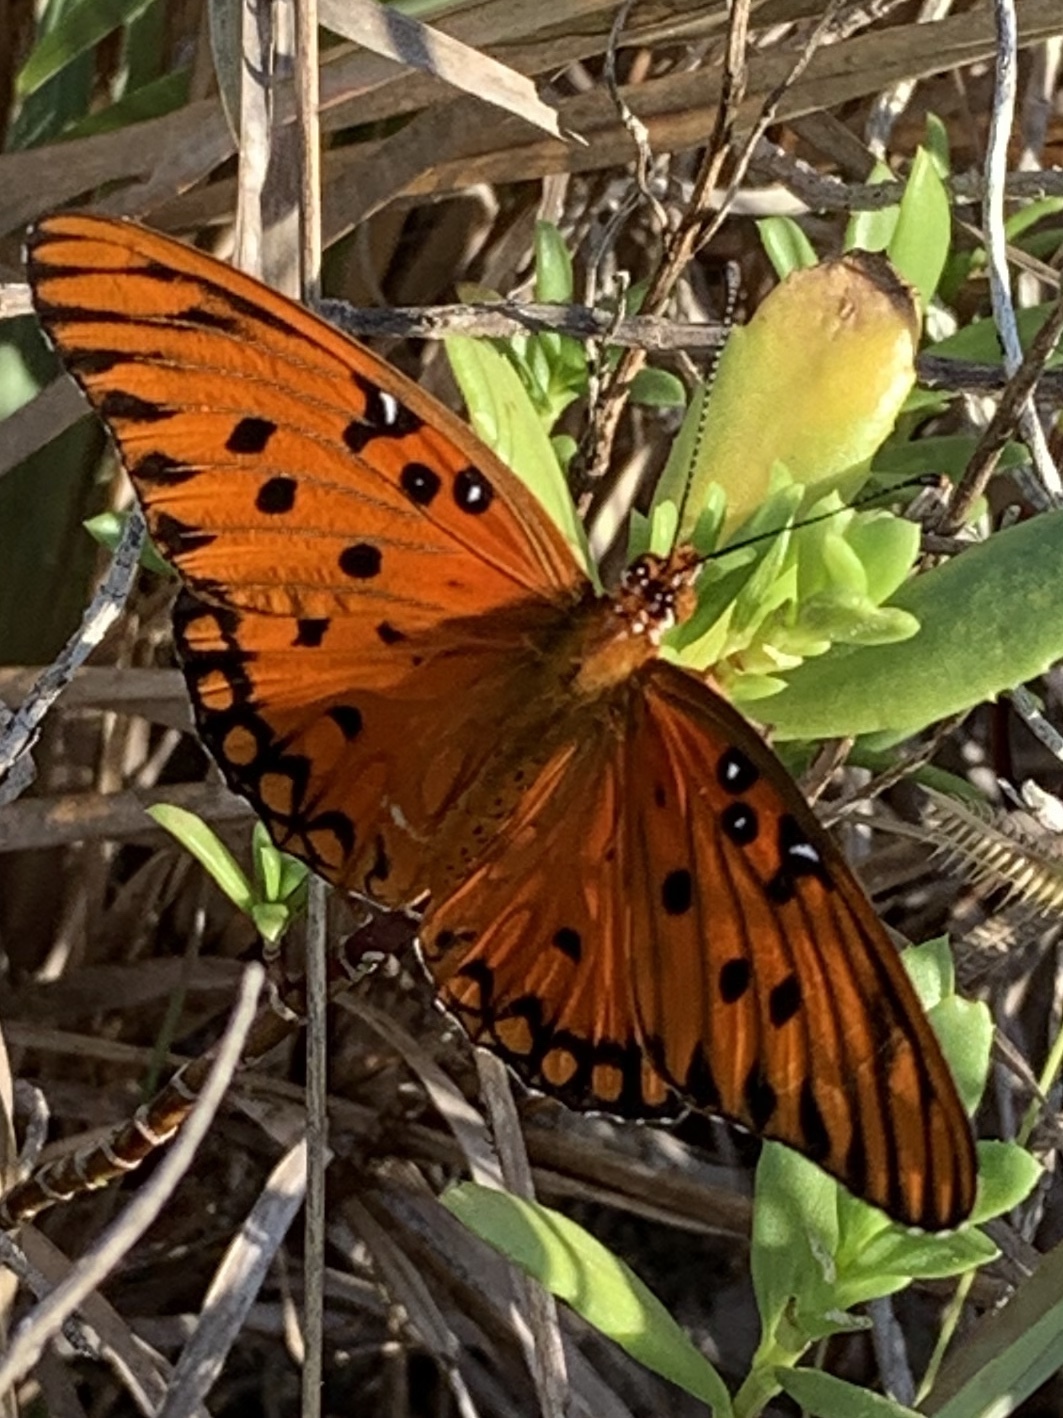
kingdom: Animalia
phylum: Arthropoda
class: Insecta
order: Lepidoptera
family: Nymphalidae
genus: Dione
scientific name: Dione vanillae
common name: Gulf fritillary
